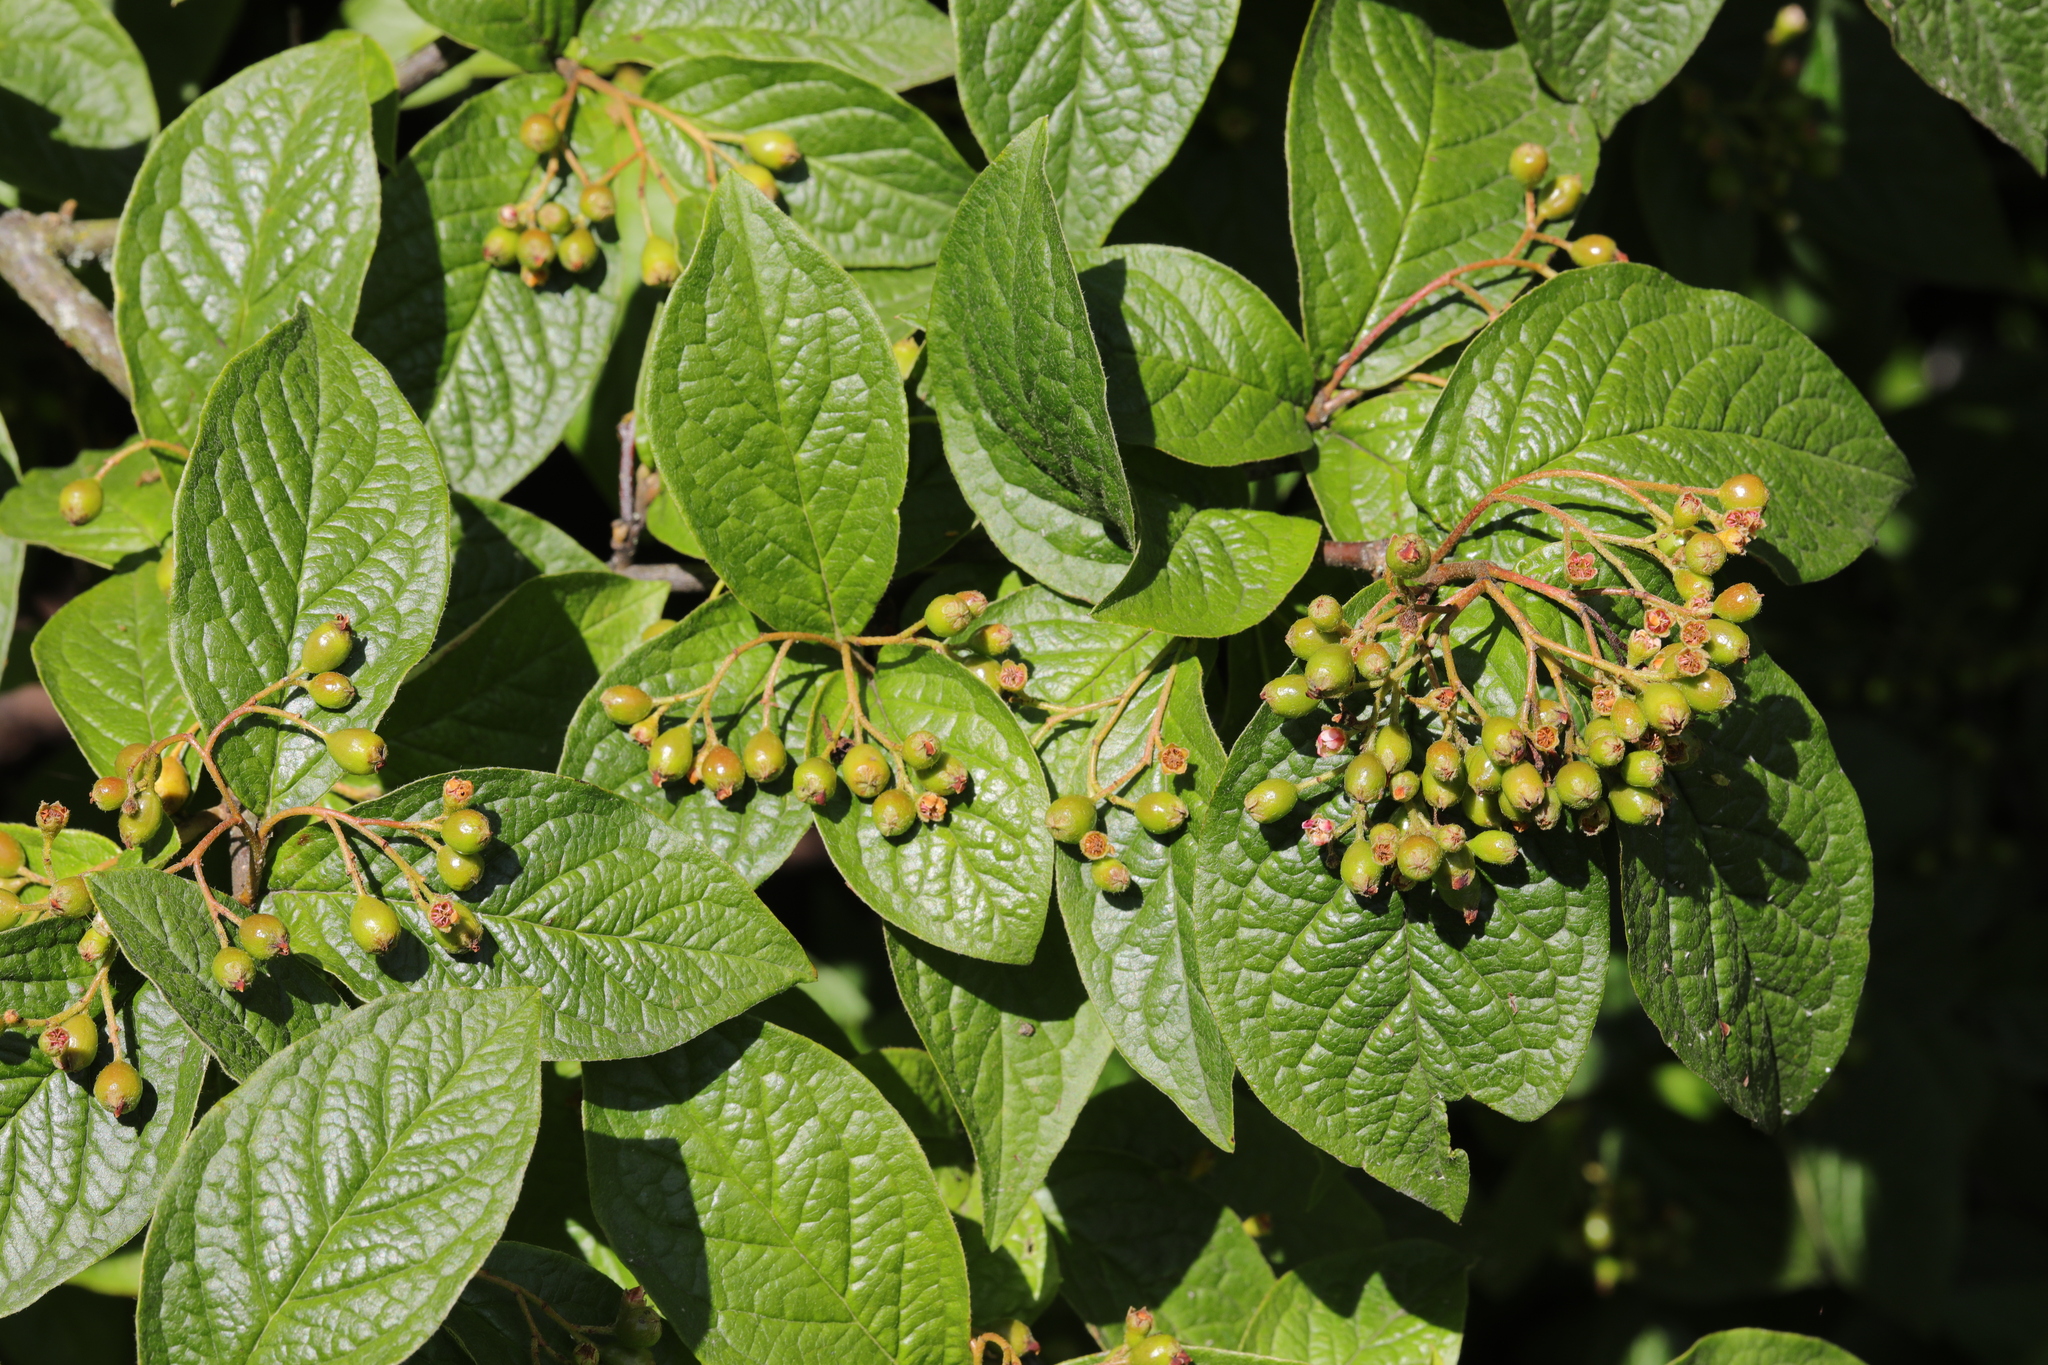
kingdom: Plantae
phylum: Tracheophyta
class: Magnoliopsida
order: Rosales
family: Rosaceae
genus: Cotoneaster
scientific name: Cotoneaster bullatus
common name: Hollyberry cotoneaster
